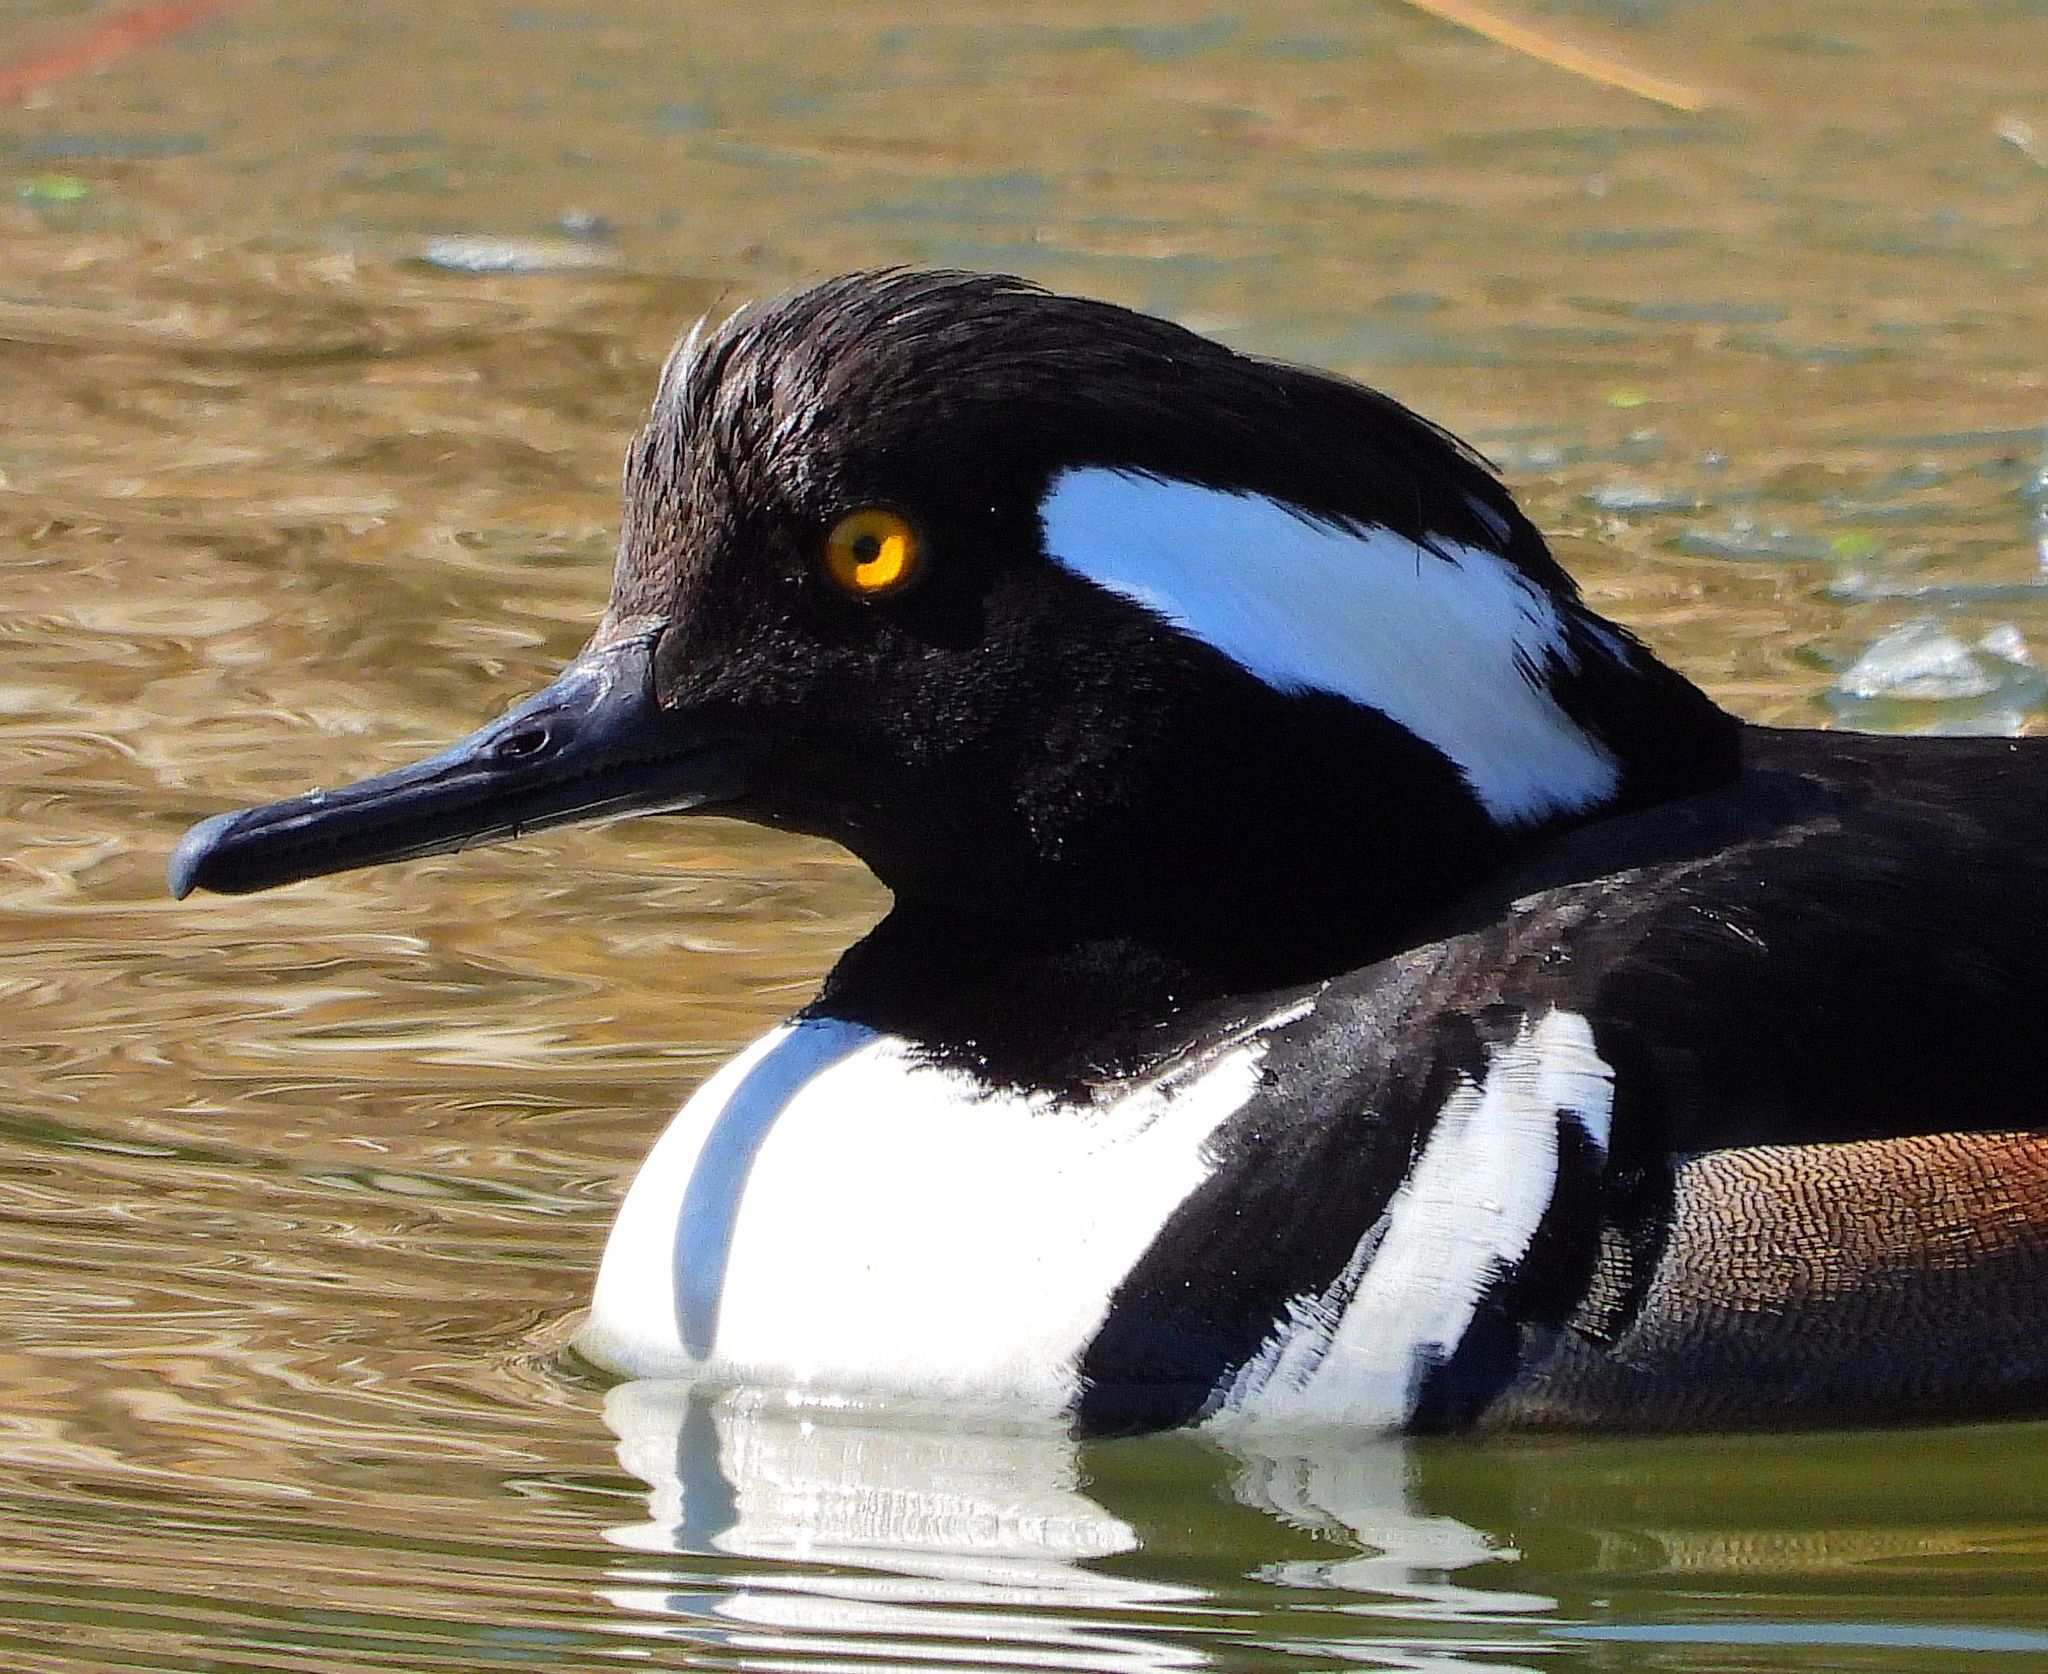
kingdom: Animalia
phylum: Chordata
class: Aves
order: Anseriformes
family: Anatidae
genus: Lophodytes
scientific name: Lophodytes cucullatus
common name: Hooded merganser
